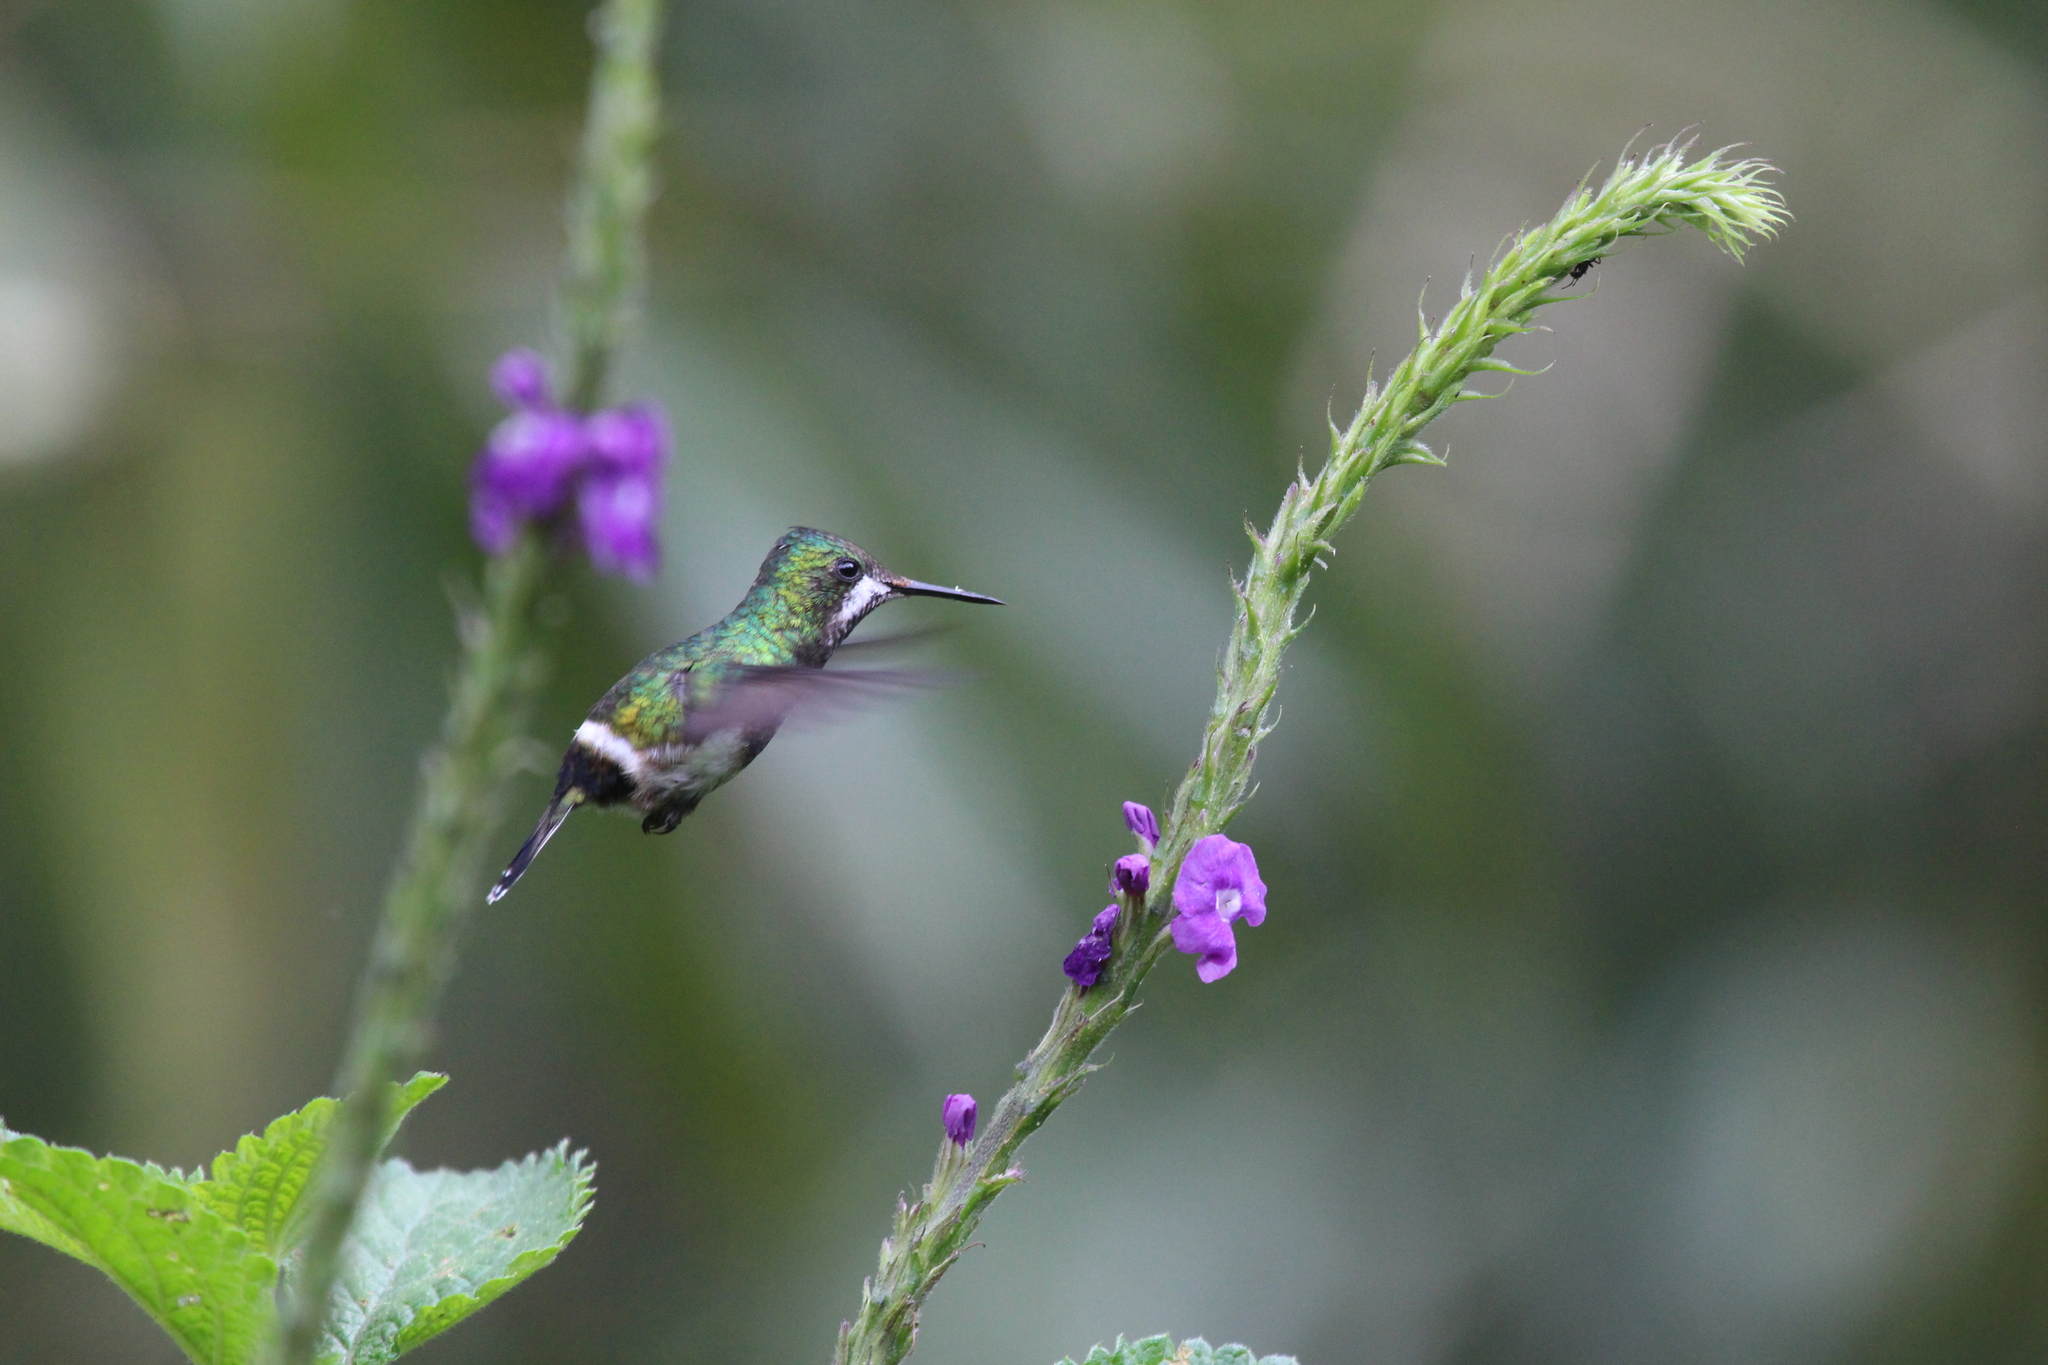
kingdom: Animalia
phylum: Chordata
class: Aves
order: Apodiformes
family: Trochilidae
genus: Discosura
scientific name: Discosura popelairii
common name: Wire-crested thorntail
